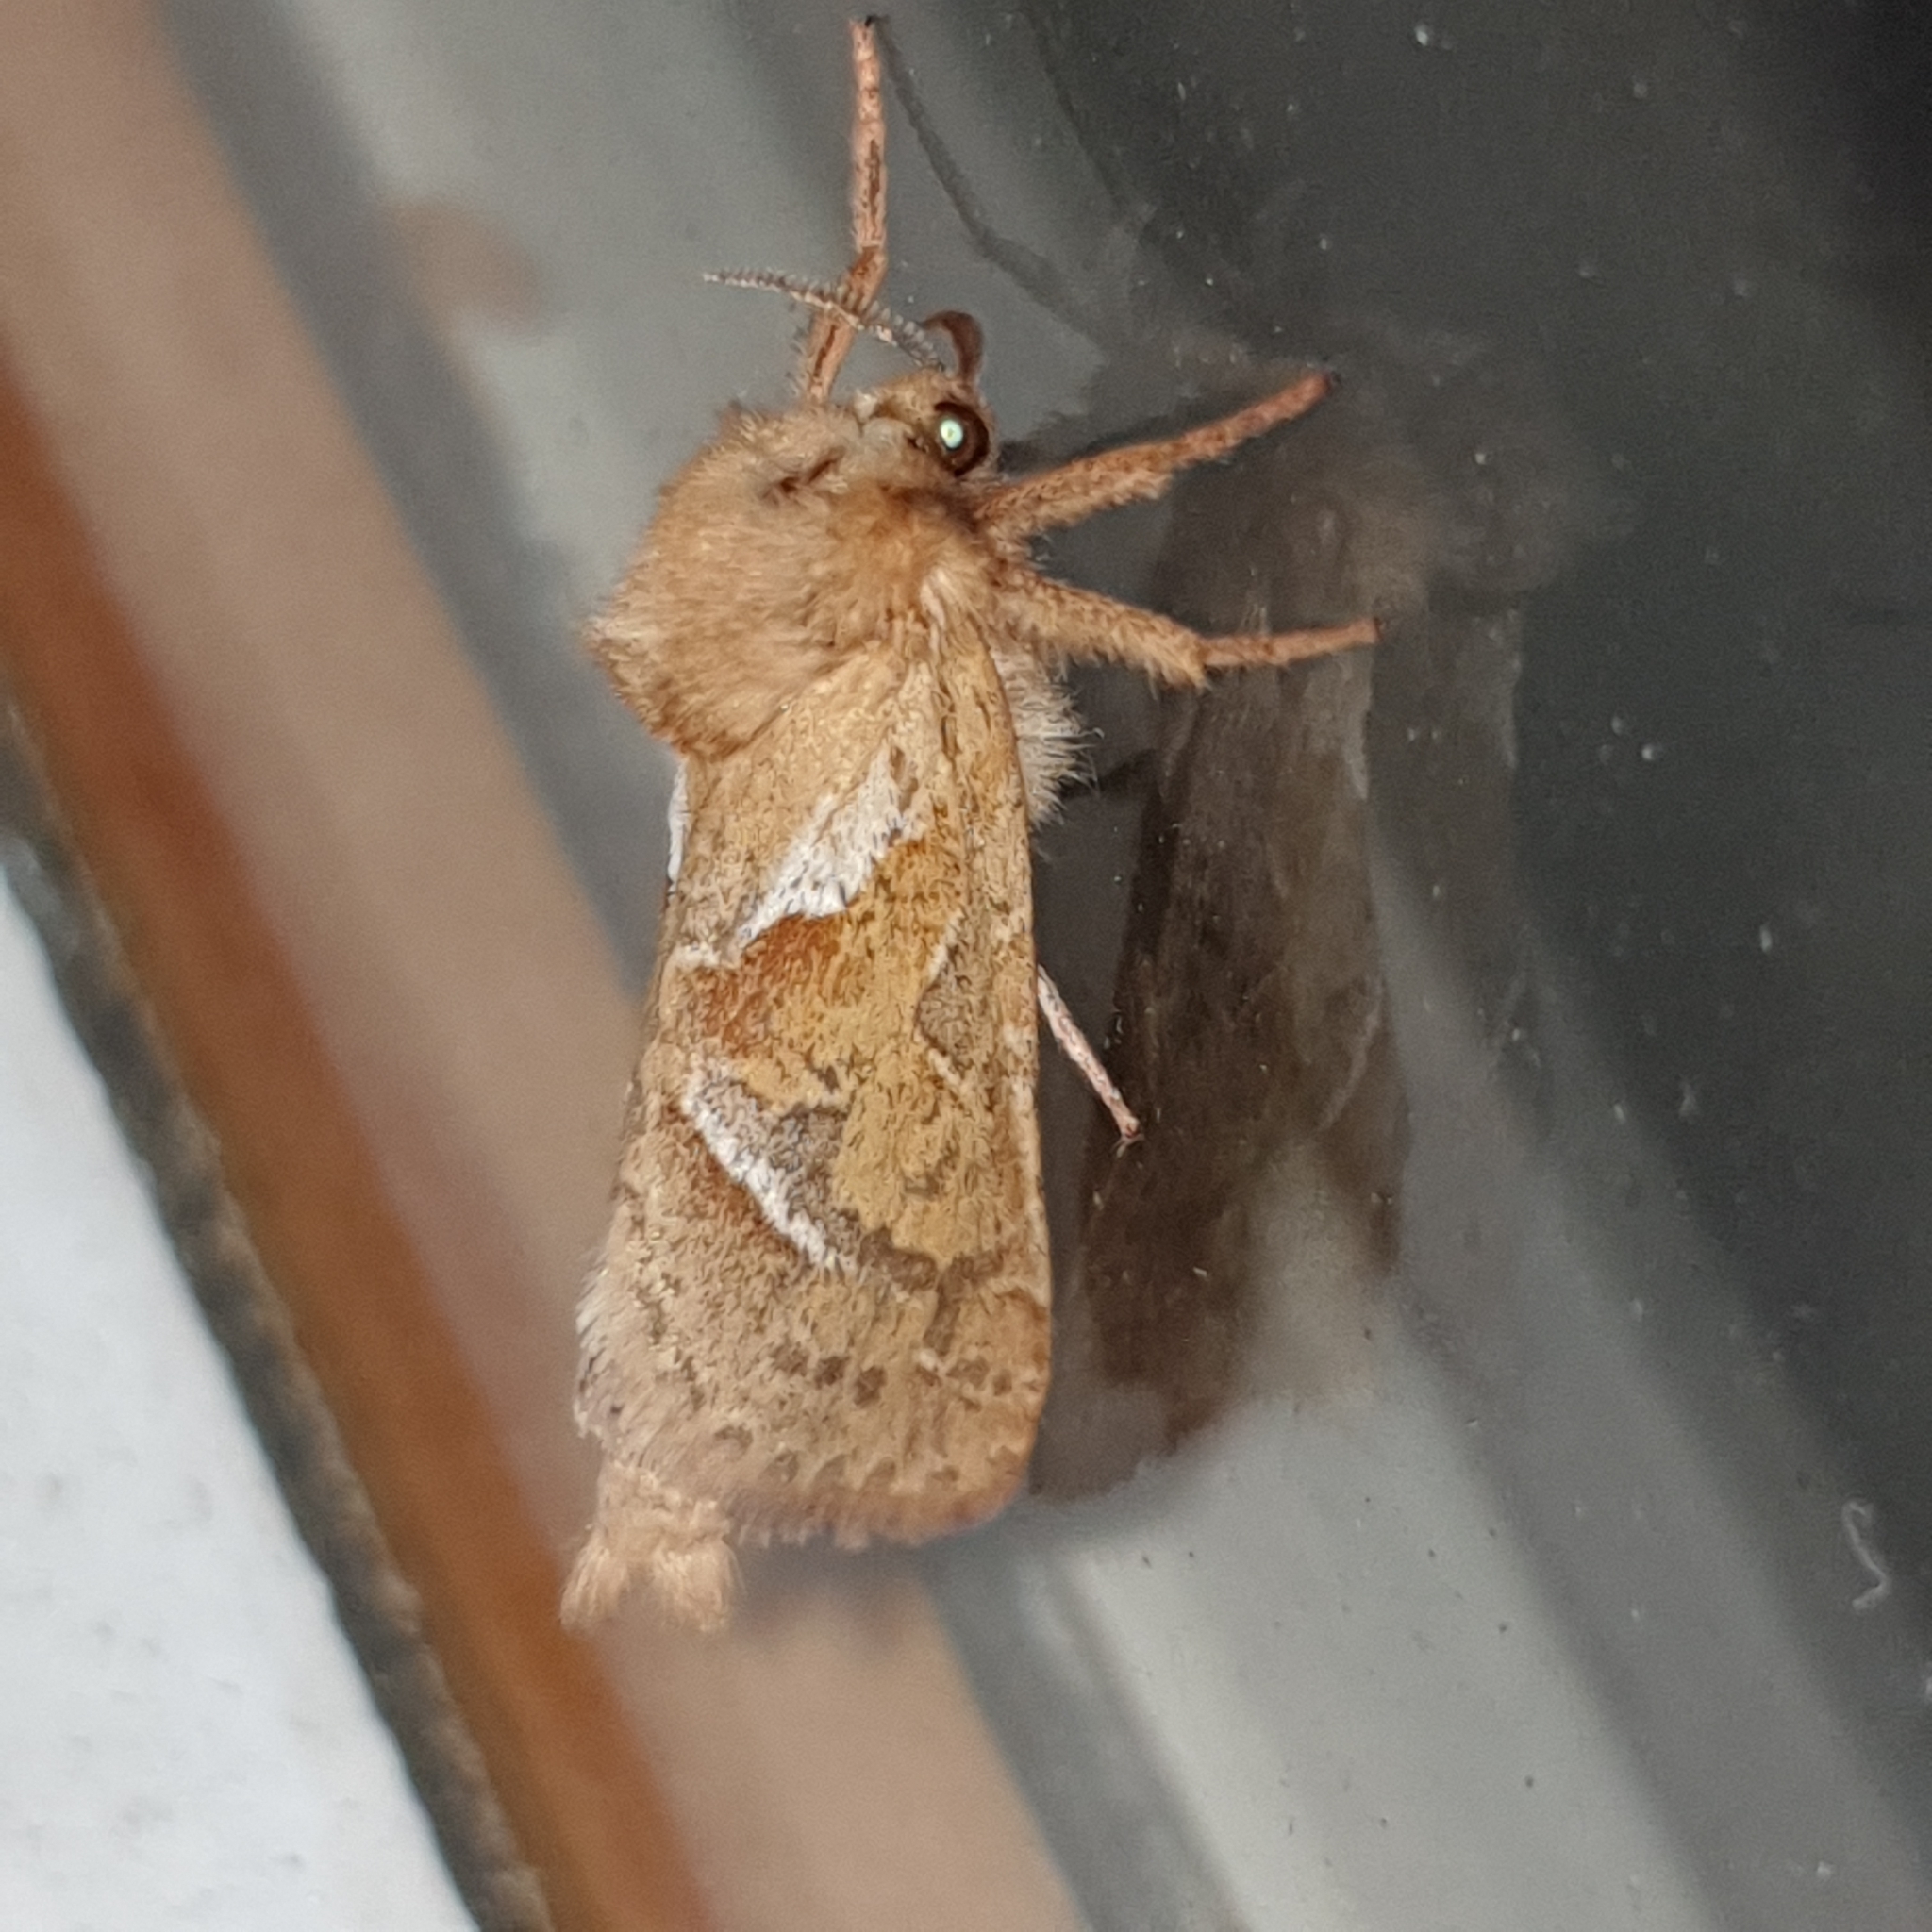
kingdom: Animalia
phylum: Arthropoda
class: Insecta
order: Lepidoptera
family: Hepialidae
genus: Triodia
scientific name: Triodia sylvina
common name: Orange swift
